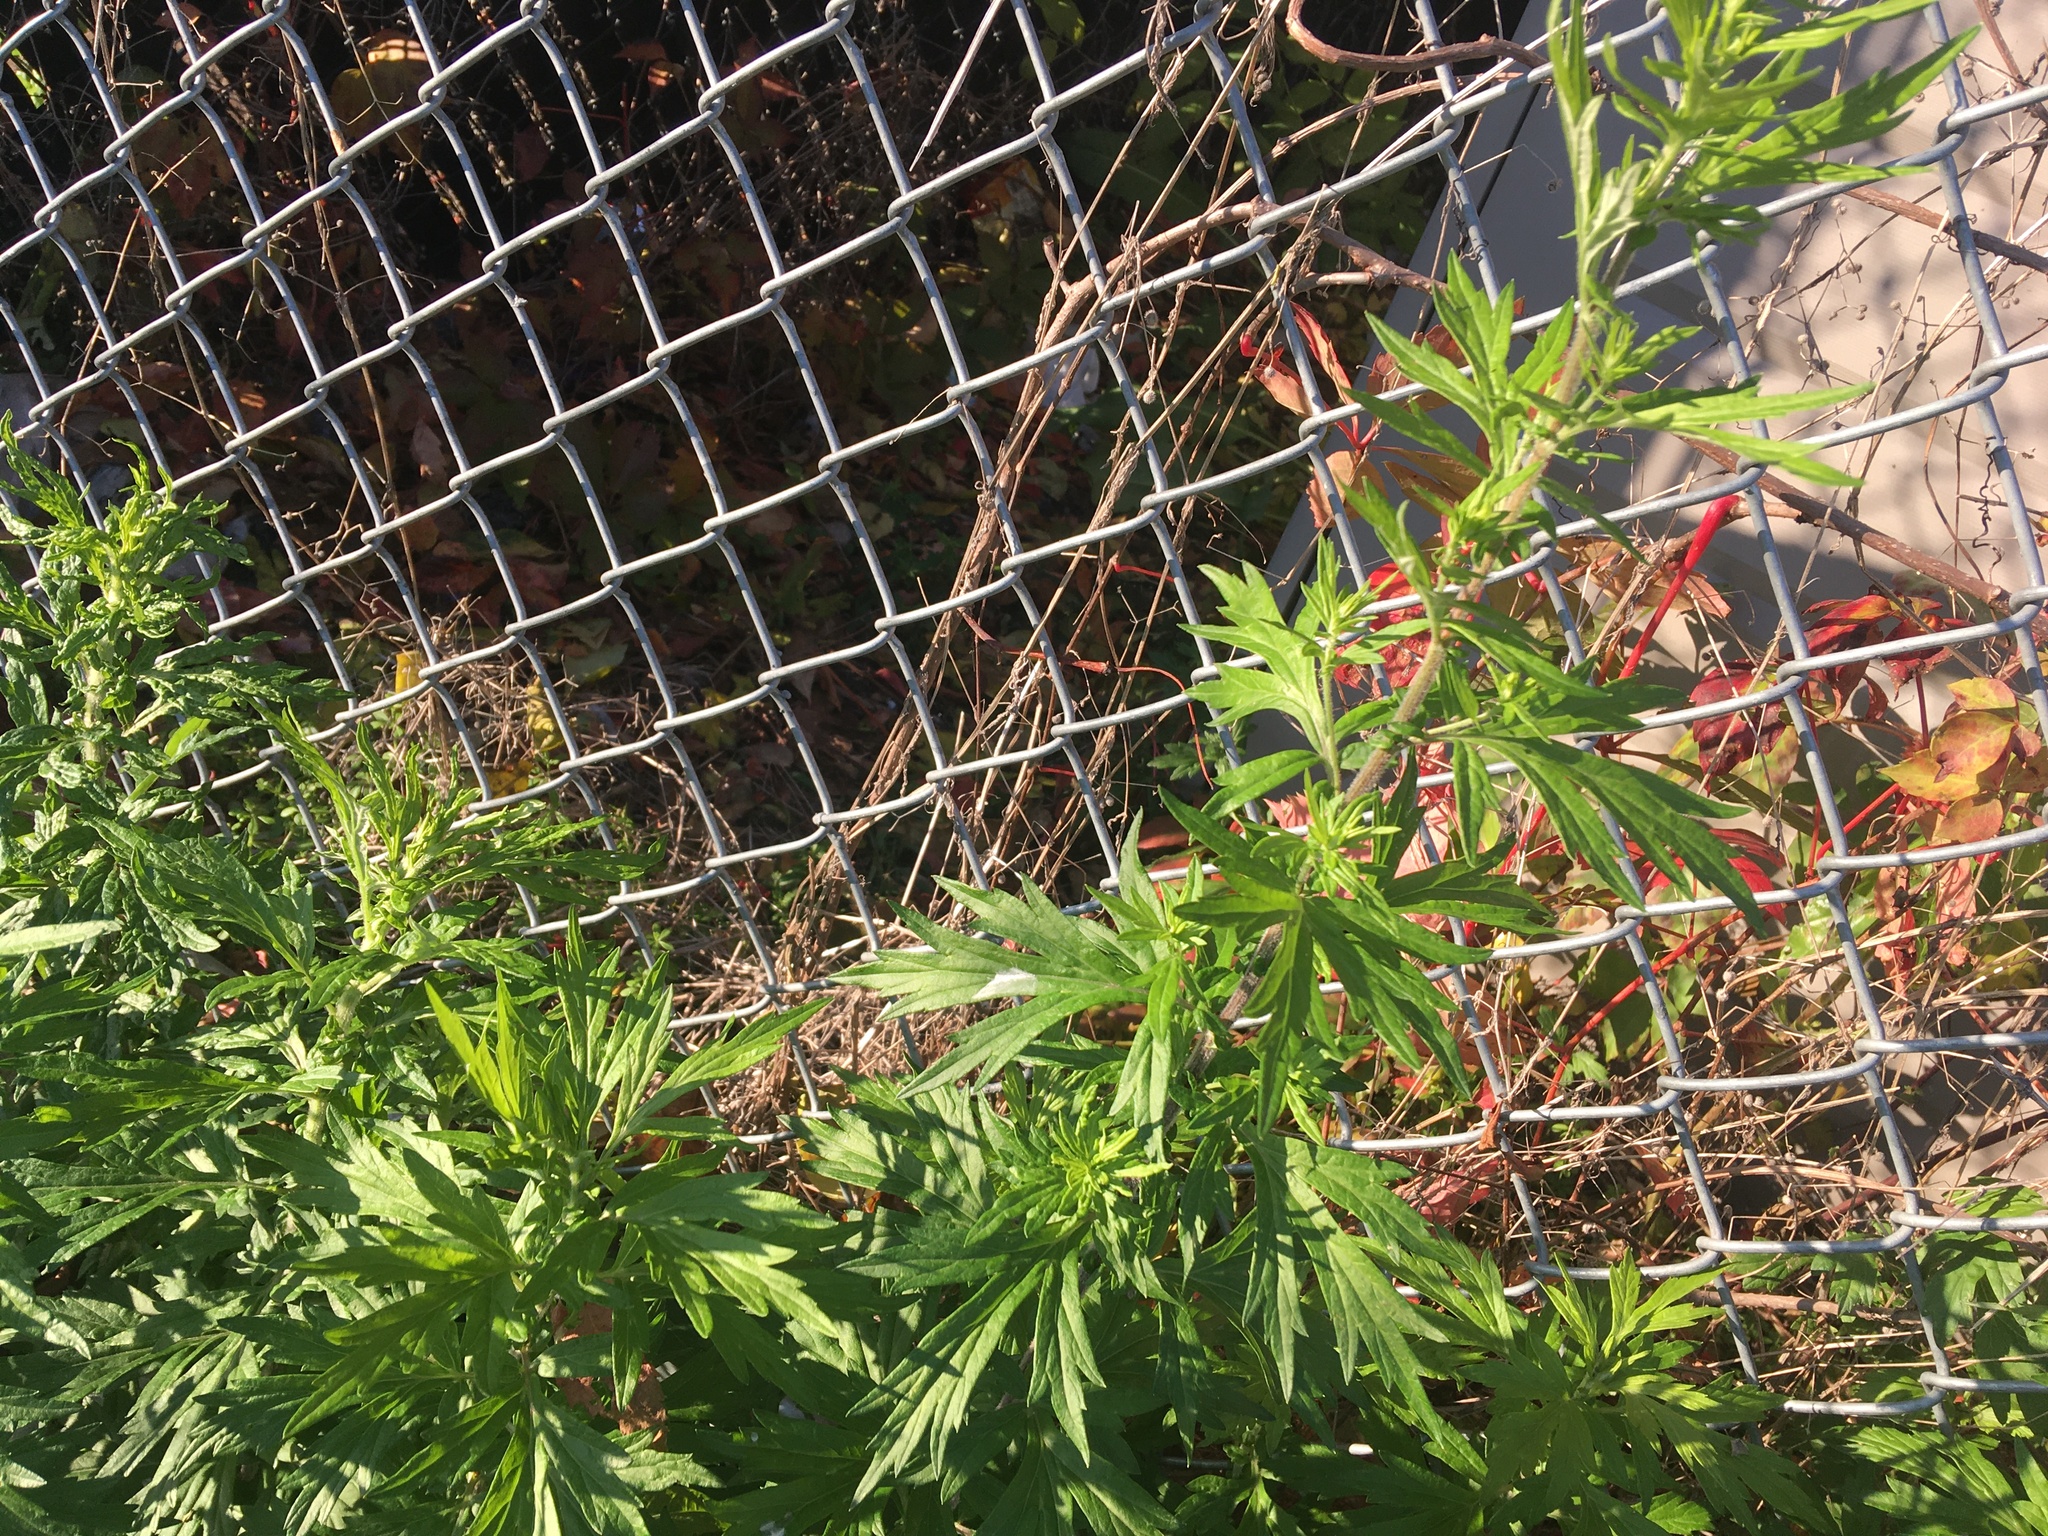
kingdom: Plantae
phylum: Tracheophyta
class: Magnoliopsida
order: Asterales
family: Asteraceae
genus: Artemisia
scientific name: Artemisia vulgaris
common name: Mugwort
